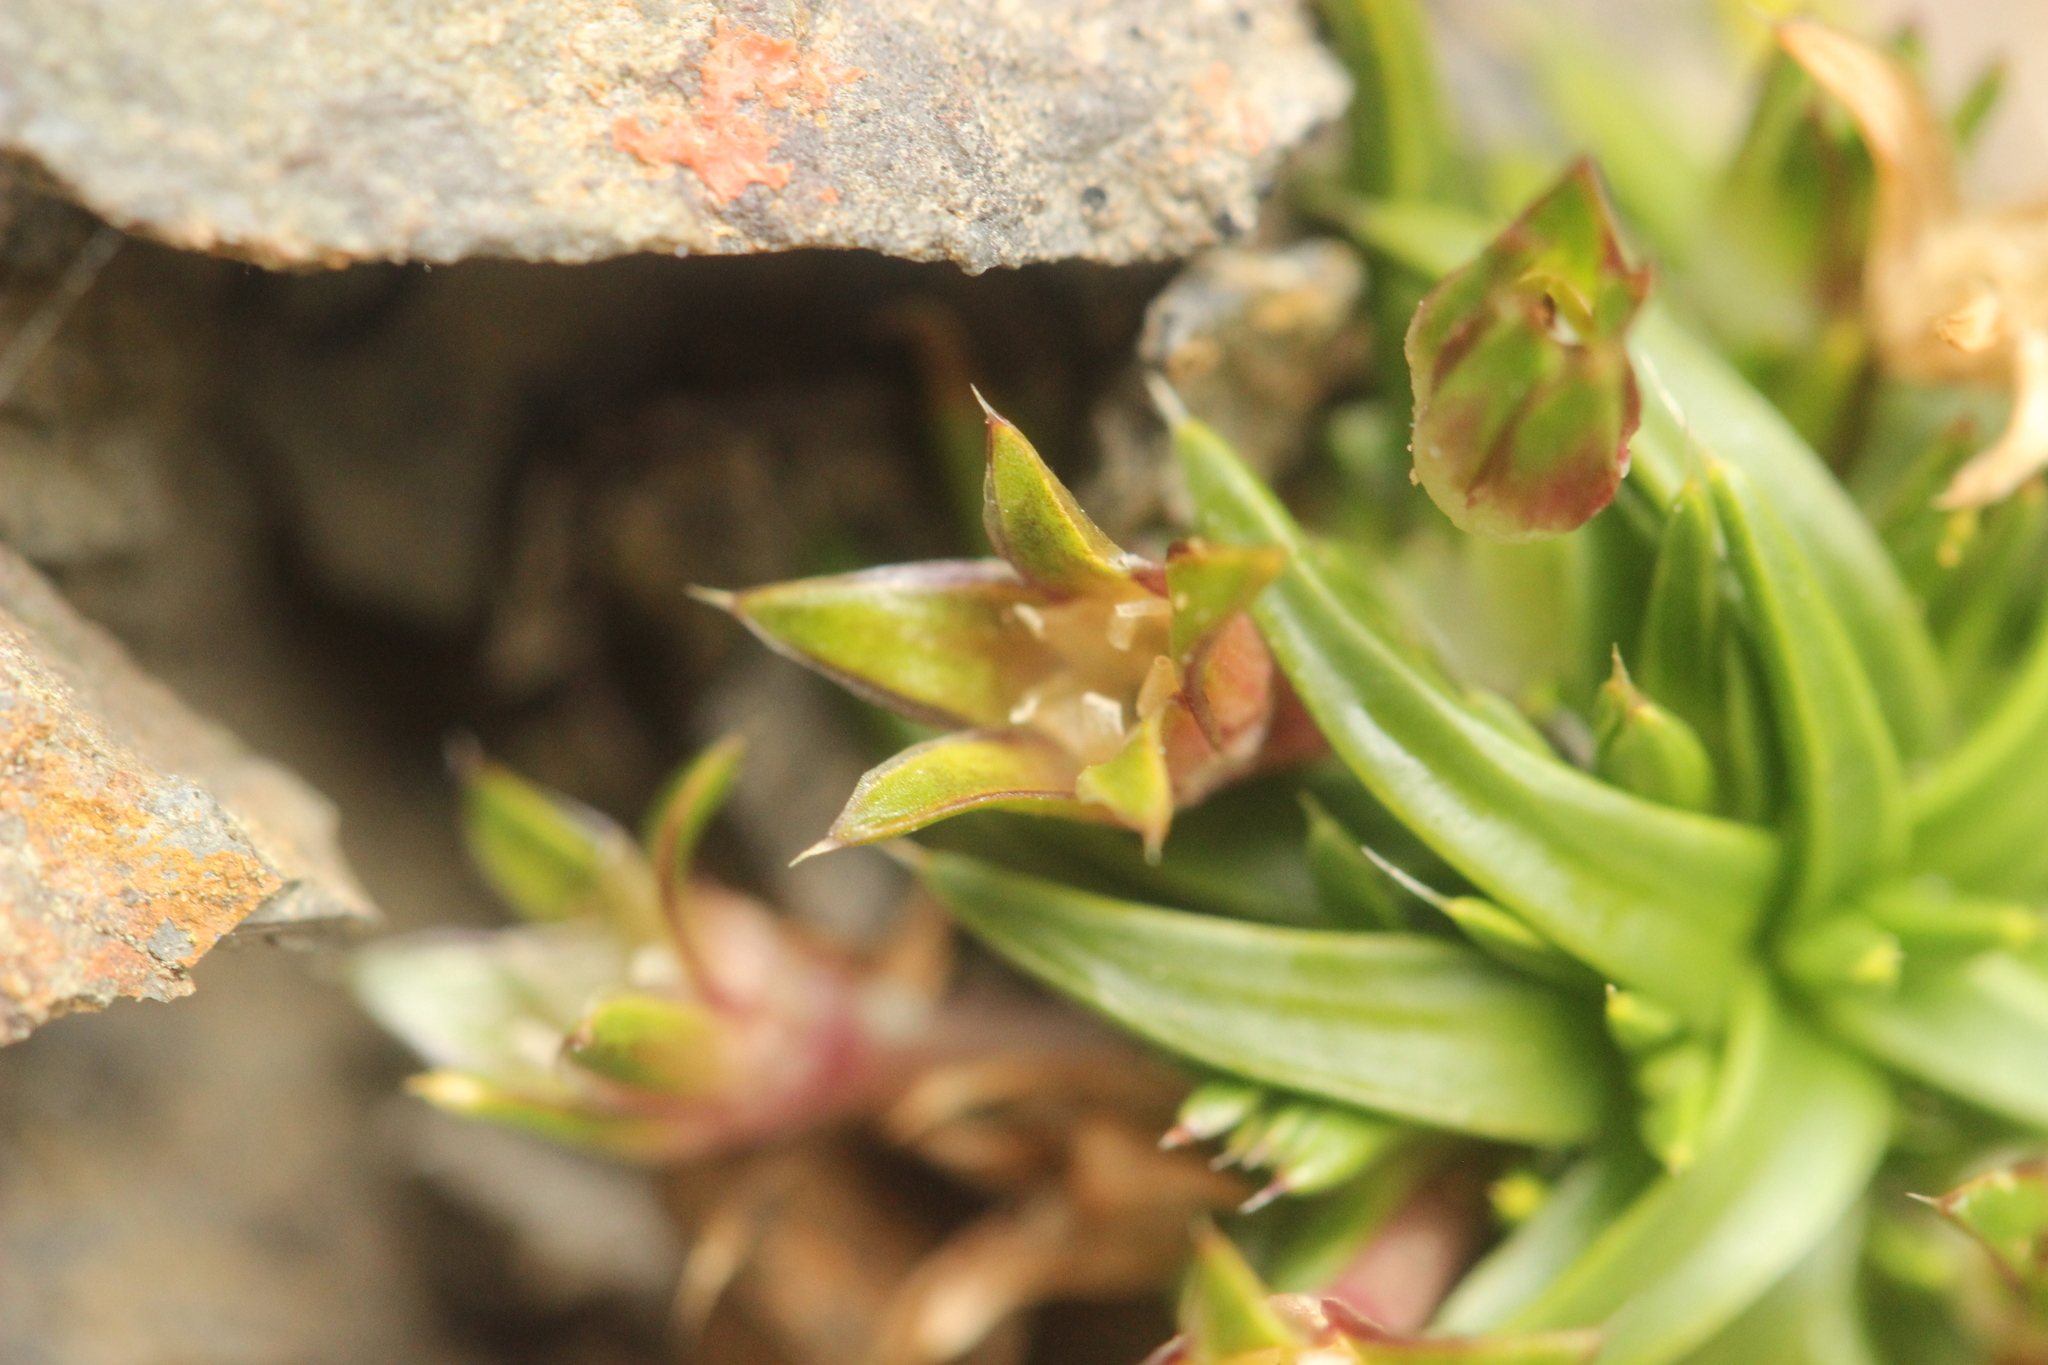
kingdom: Plantae
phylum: Tracheophyta
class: Magnoliopsida
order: Caryophyllales
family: Caryophyllaceae
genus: Colobanthus
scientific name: Colobanthus muelleri
